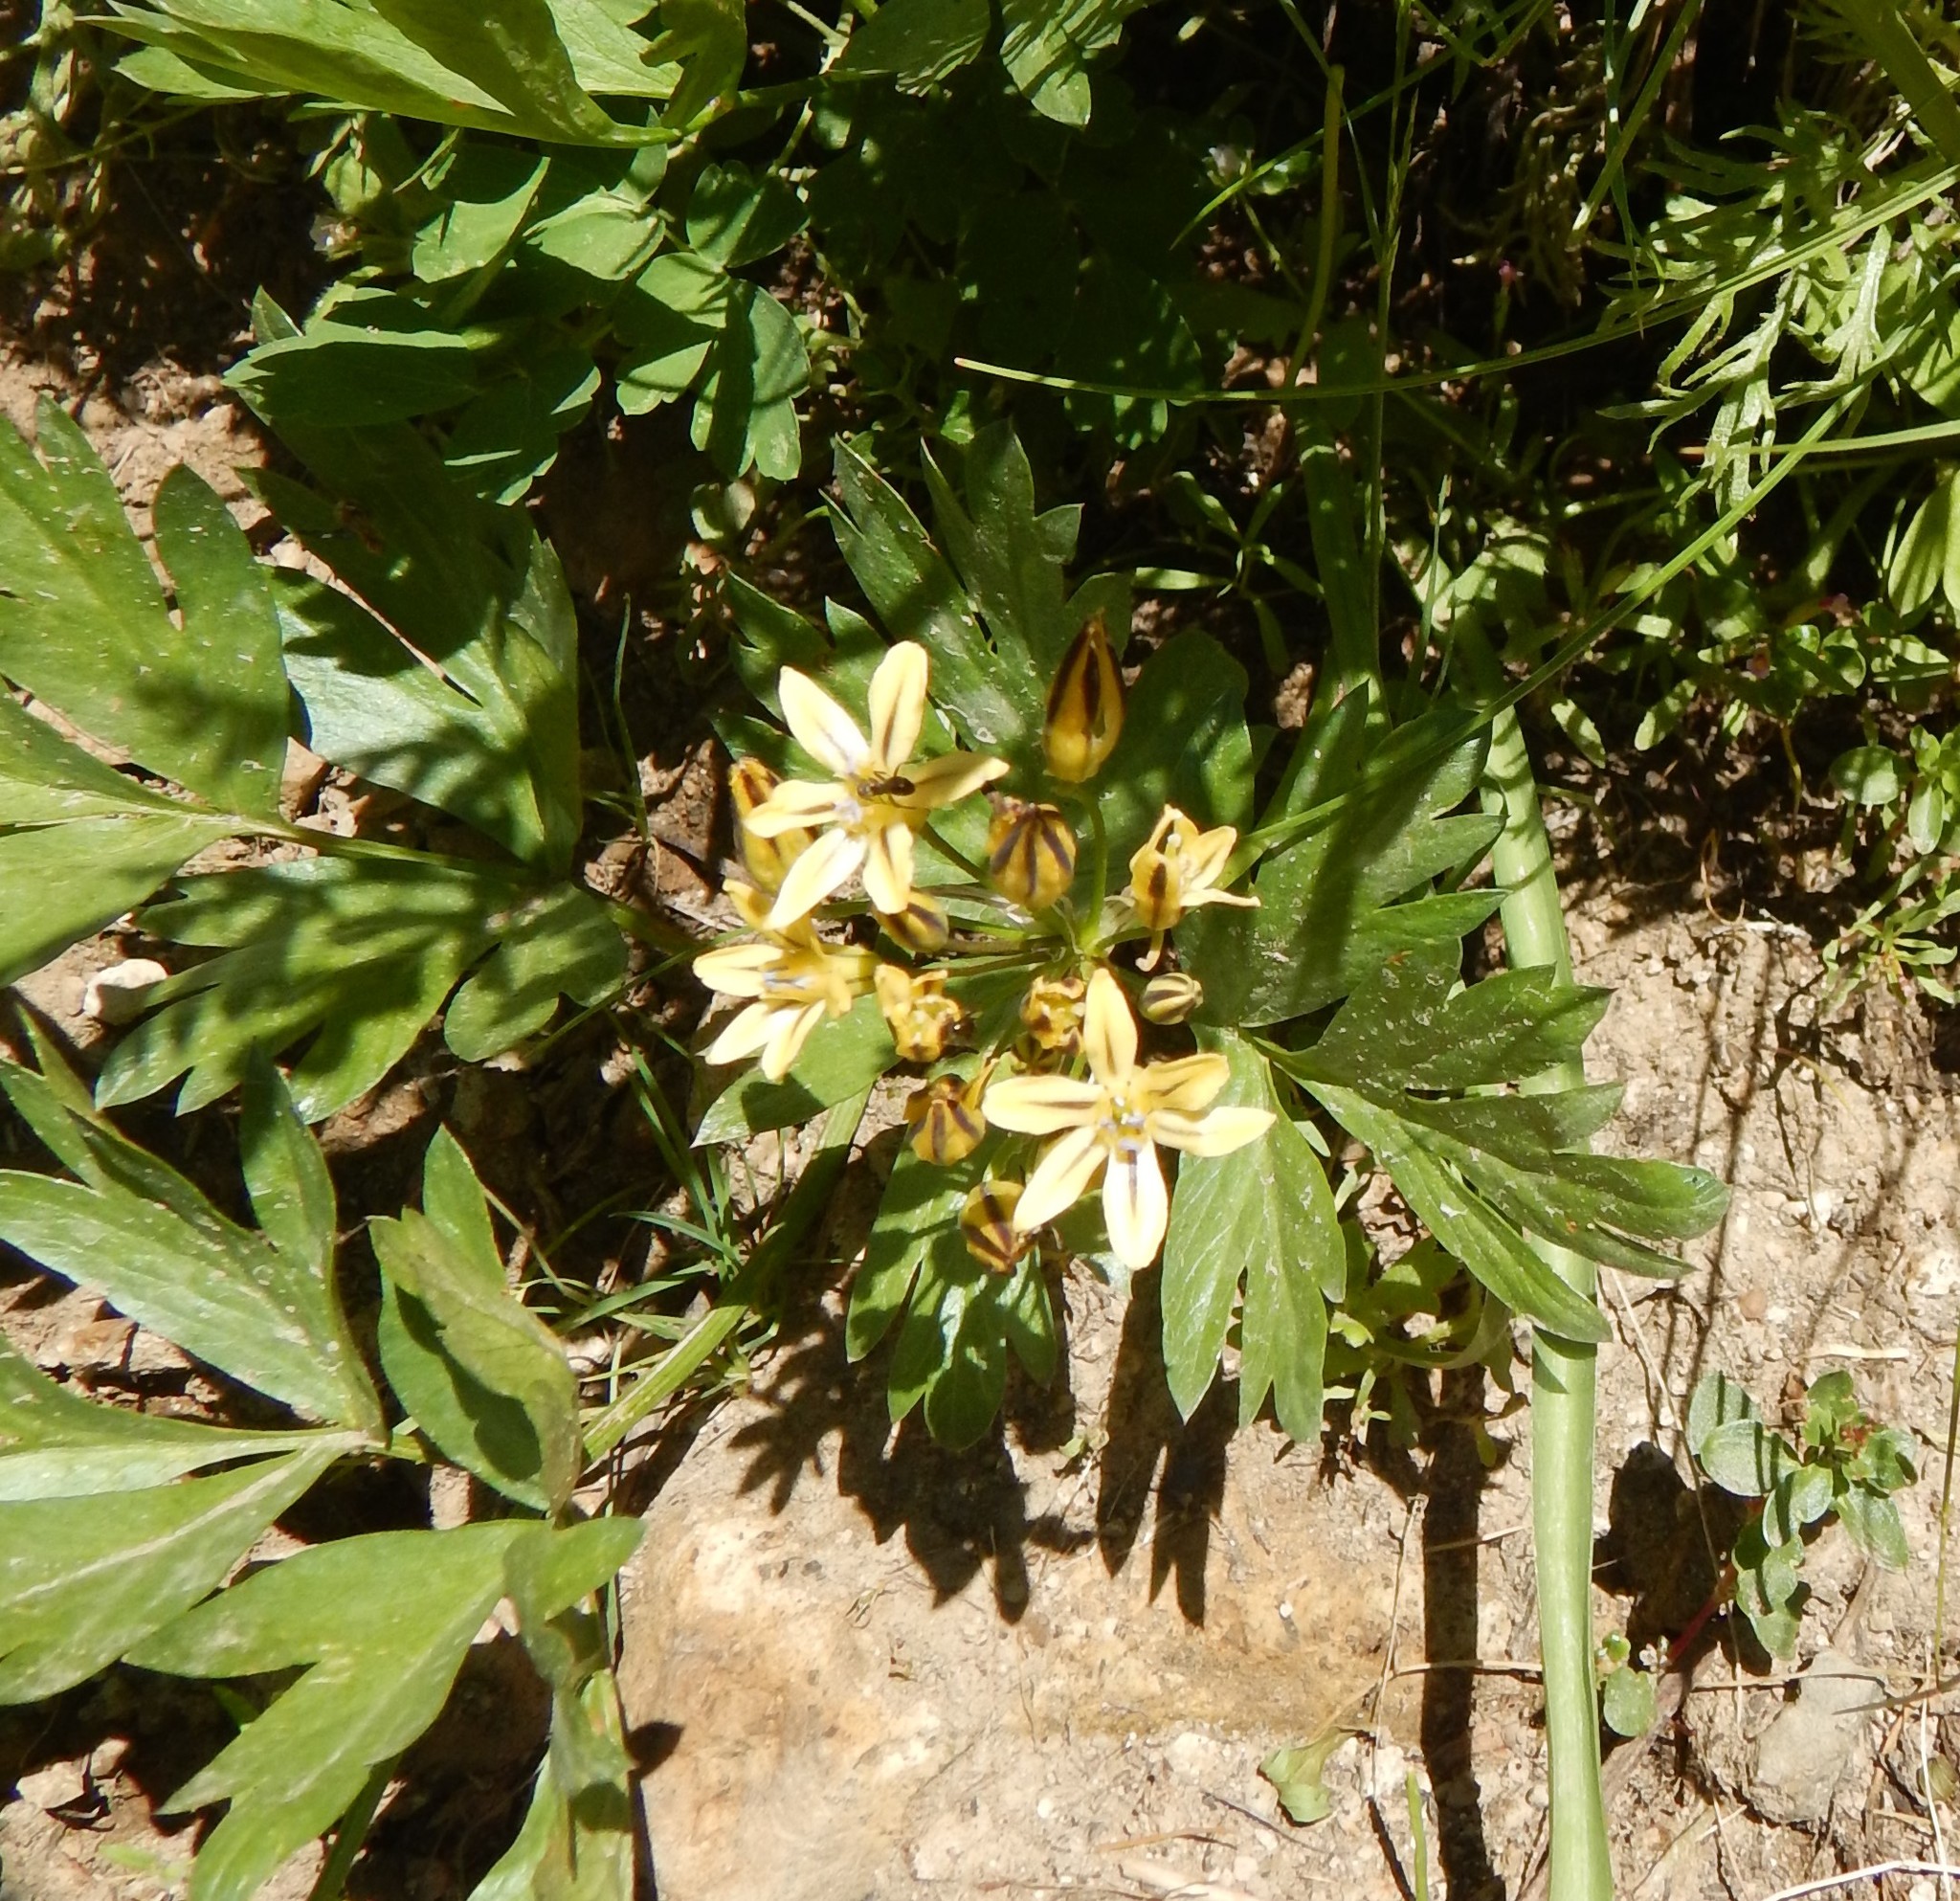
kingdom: Plantae
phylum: Tracheophyta
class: Liliopsida
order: Asparagales
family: Asparagaceae
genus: Triteleia
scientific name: Triteleia ixioides
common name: Yellow-brodiaea
